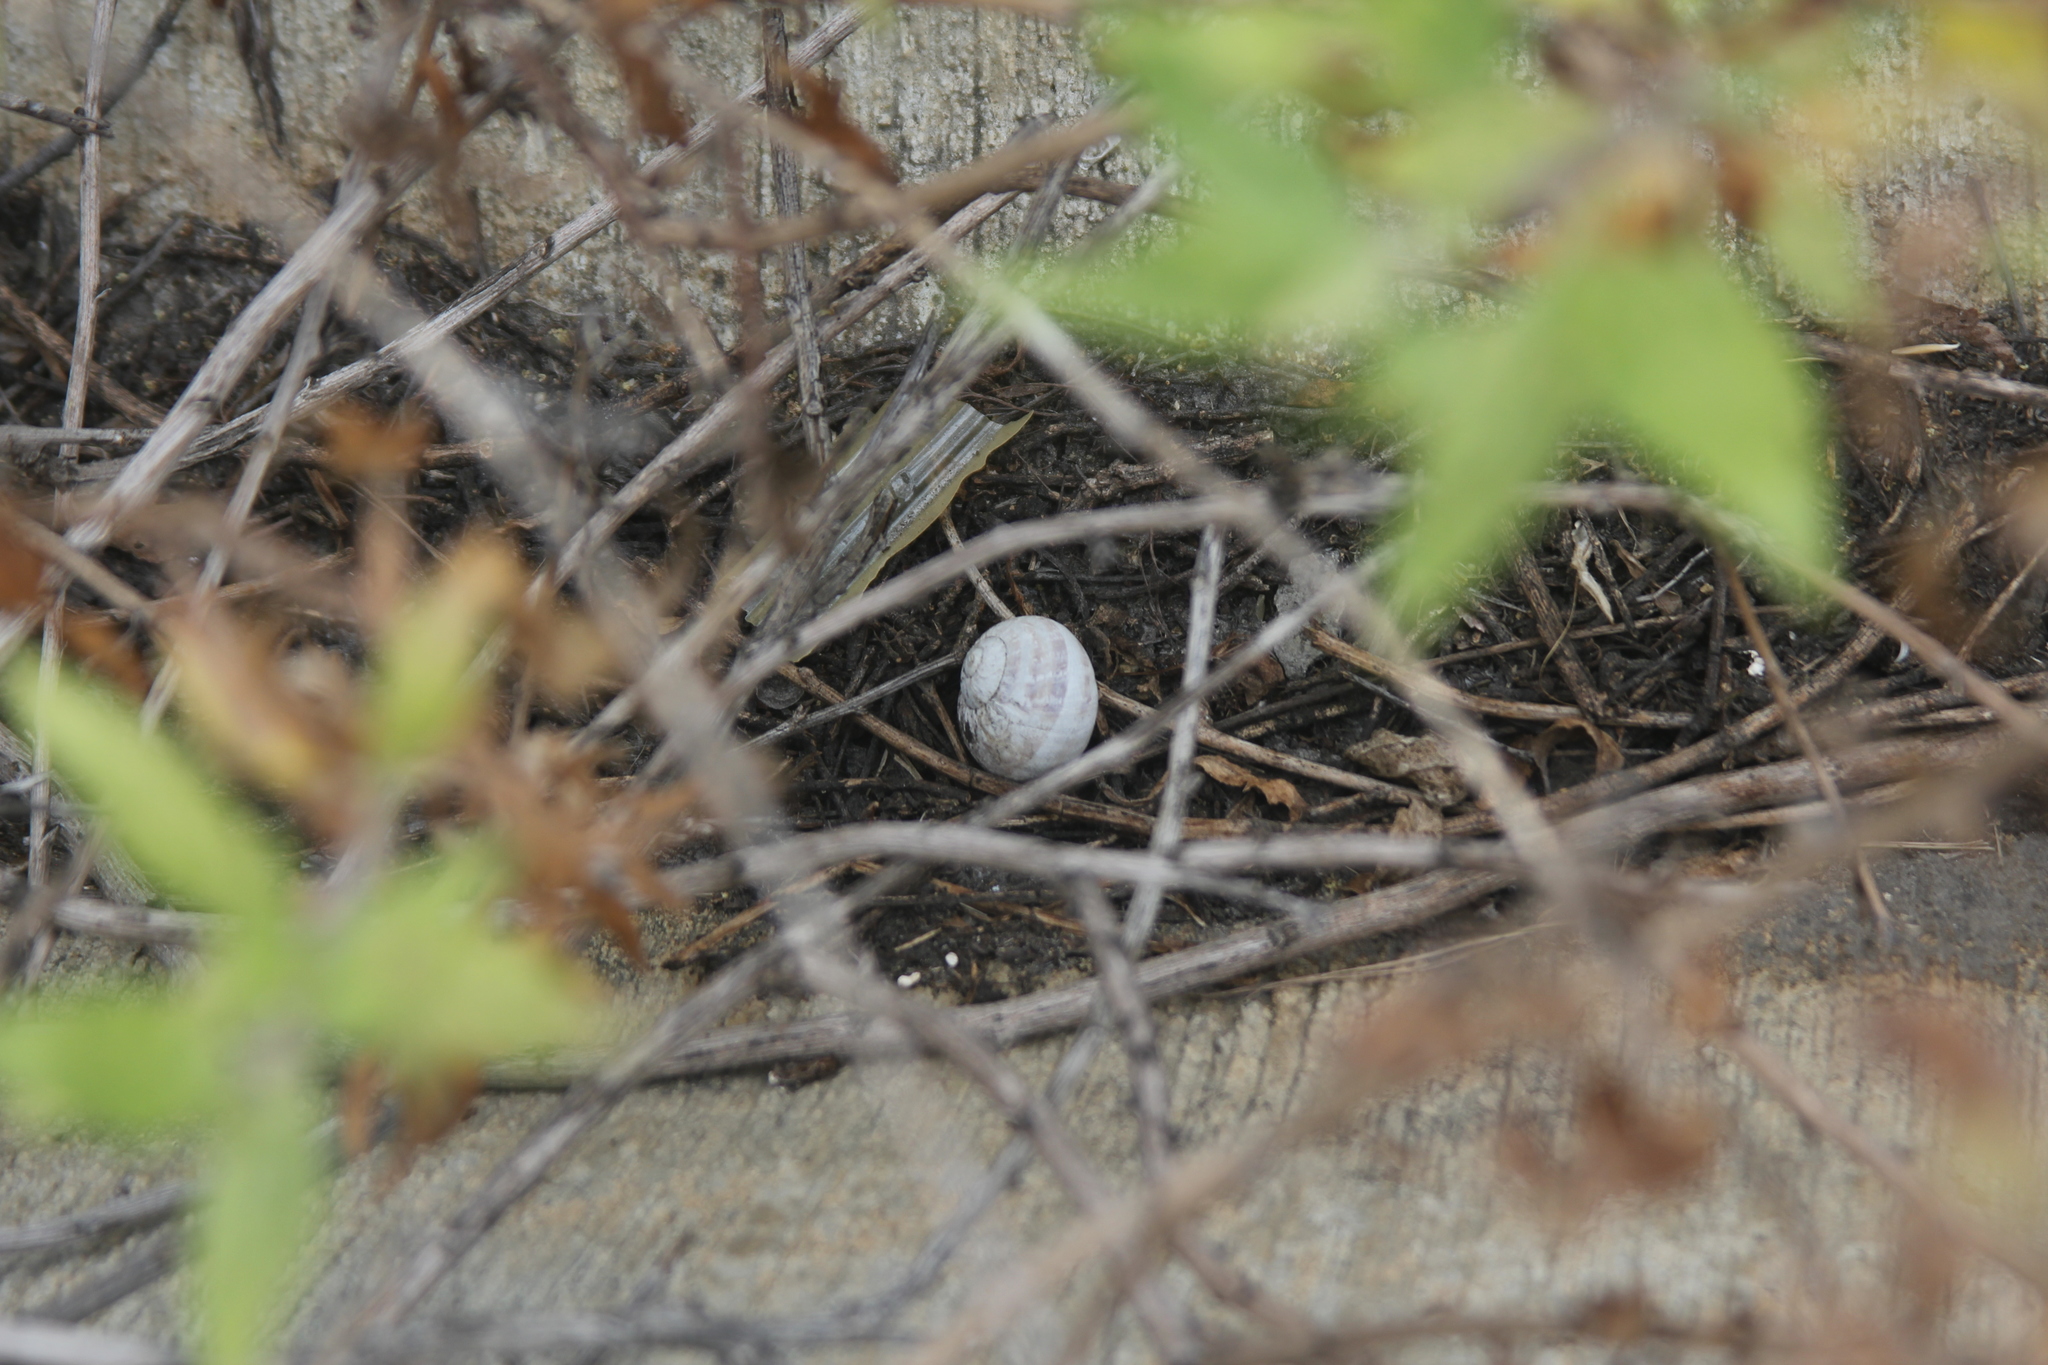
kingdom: Animalia
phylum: Mollusca
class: Gastropoda
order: Stylommatophora
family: Helicidae
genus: Cornu
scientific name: Cornu aspersum
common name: Brown garden snail
